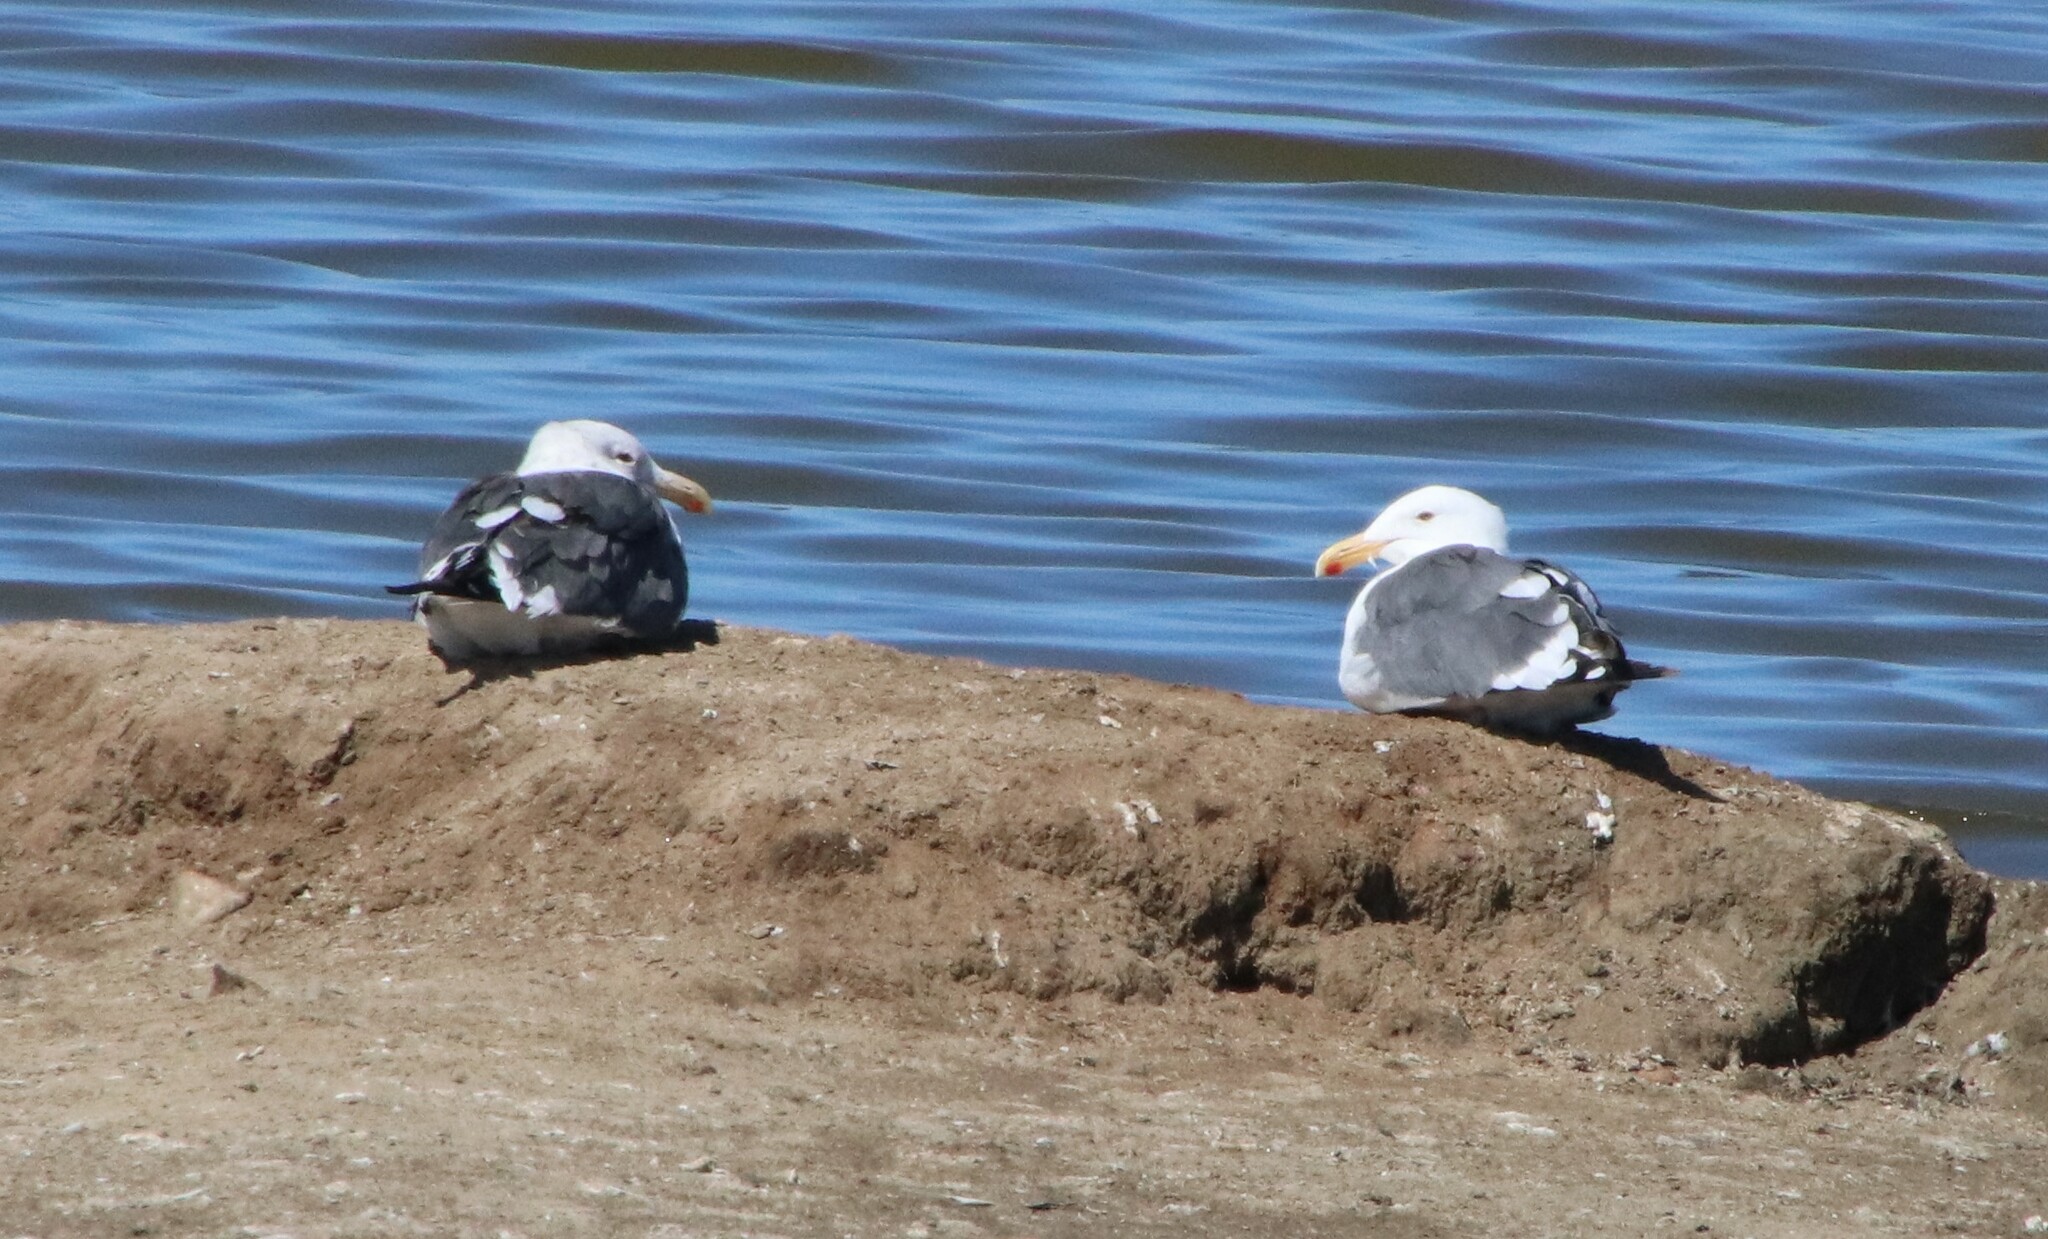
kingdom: Animalia
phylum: Chordata
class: Aves
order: Charadriiformes
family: Laridae
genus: Larus
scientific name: Larus occidentalis
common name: Western gull
